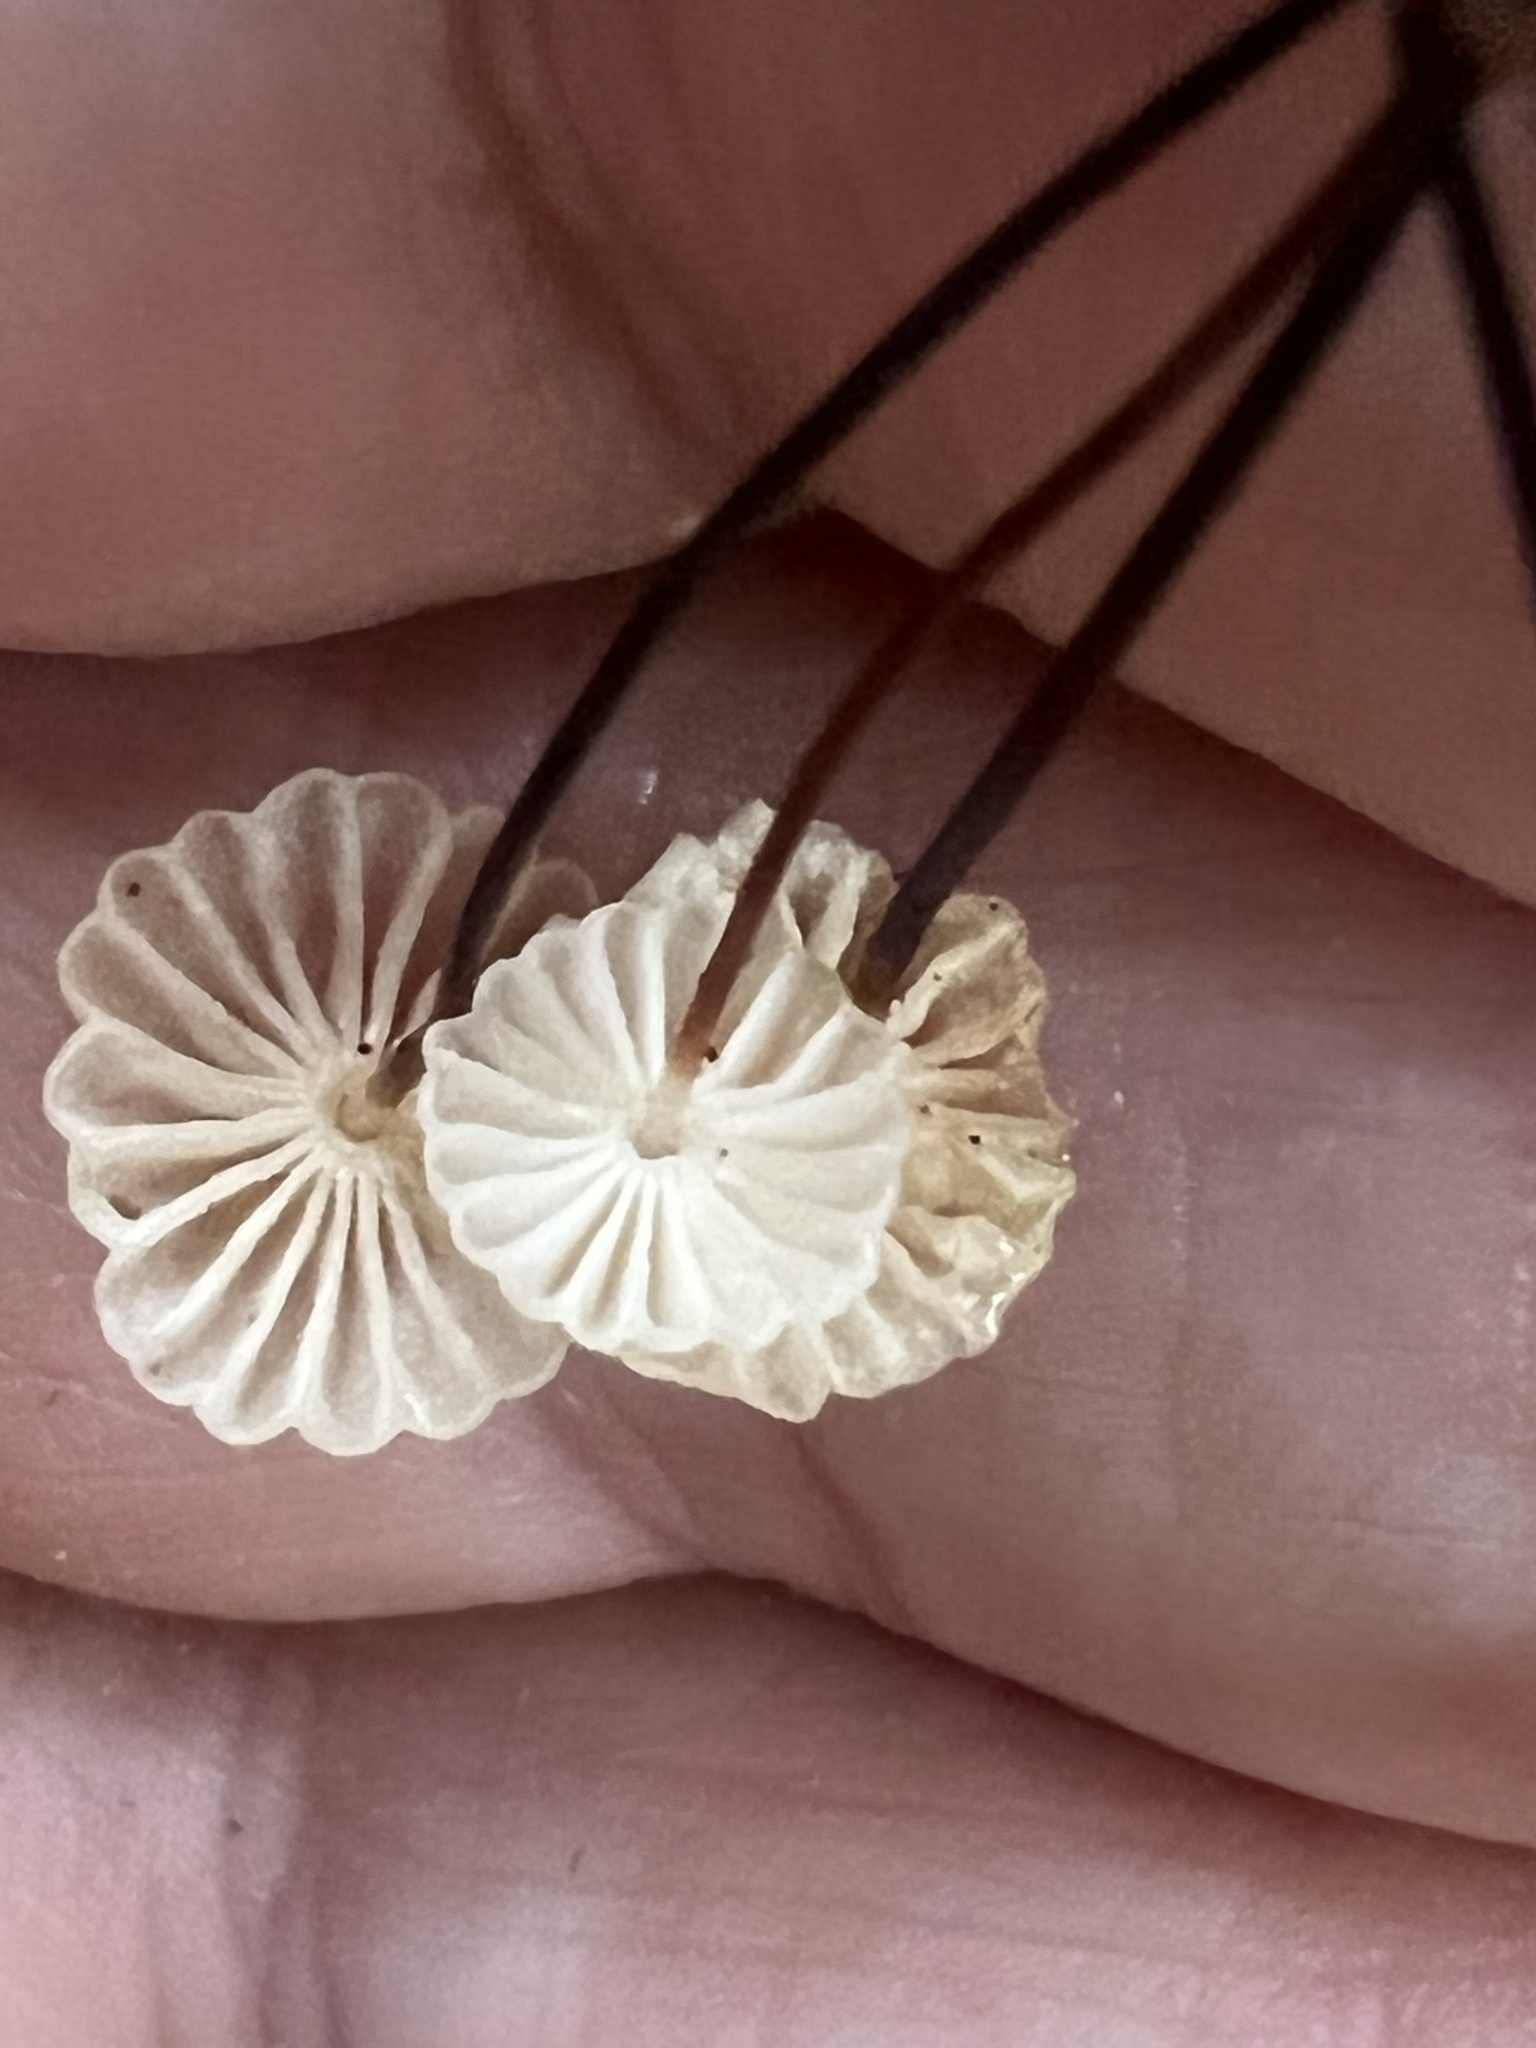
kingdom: Fungi
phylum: Basidiomycota
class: Agaricomycetes
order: Agaricales
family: Marasmiaceae
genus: Marasmius
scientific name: Marasmius rotula
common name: Collared parachute
